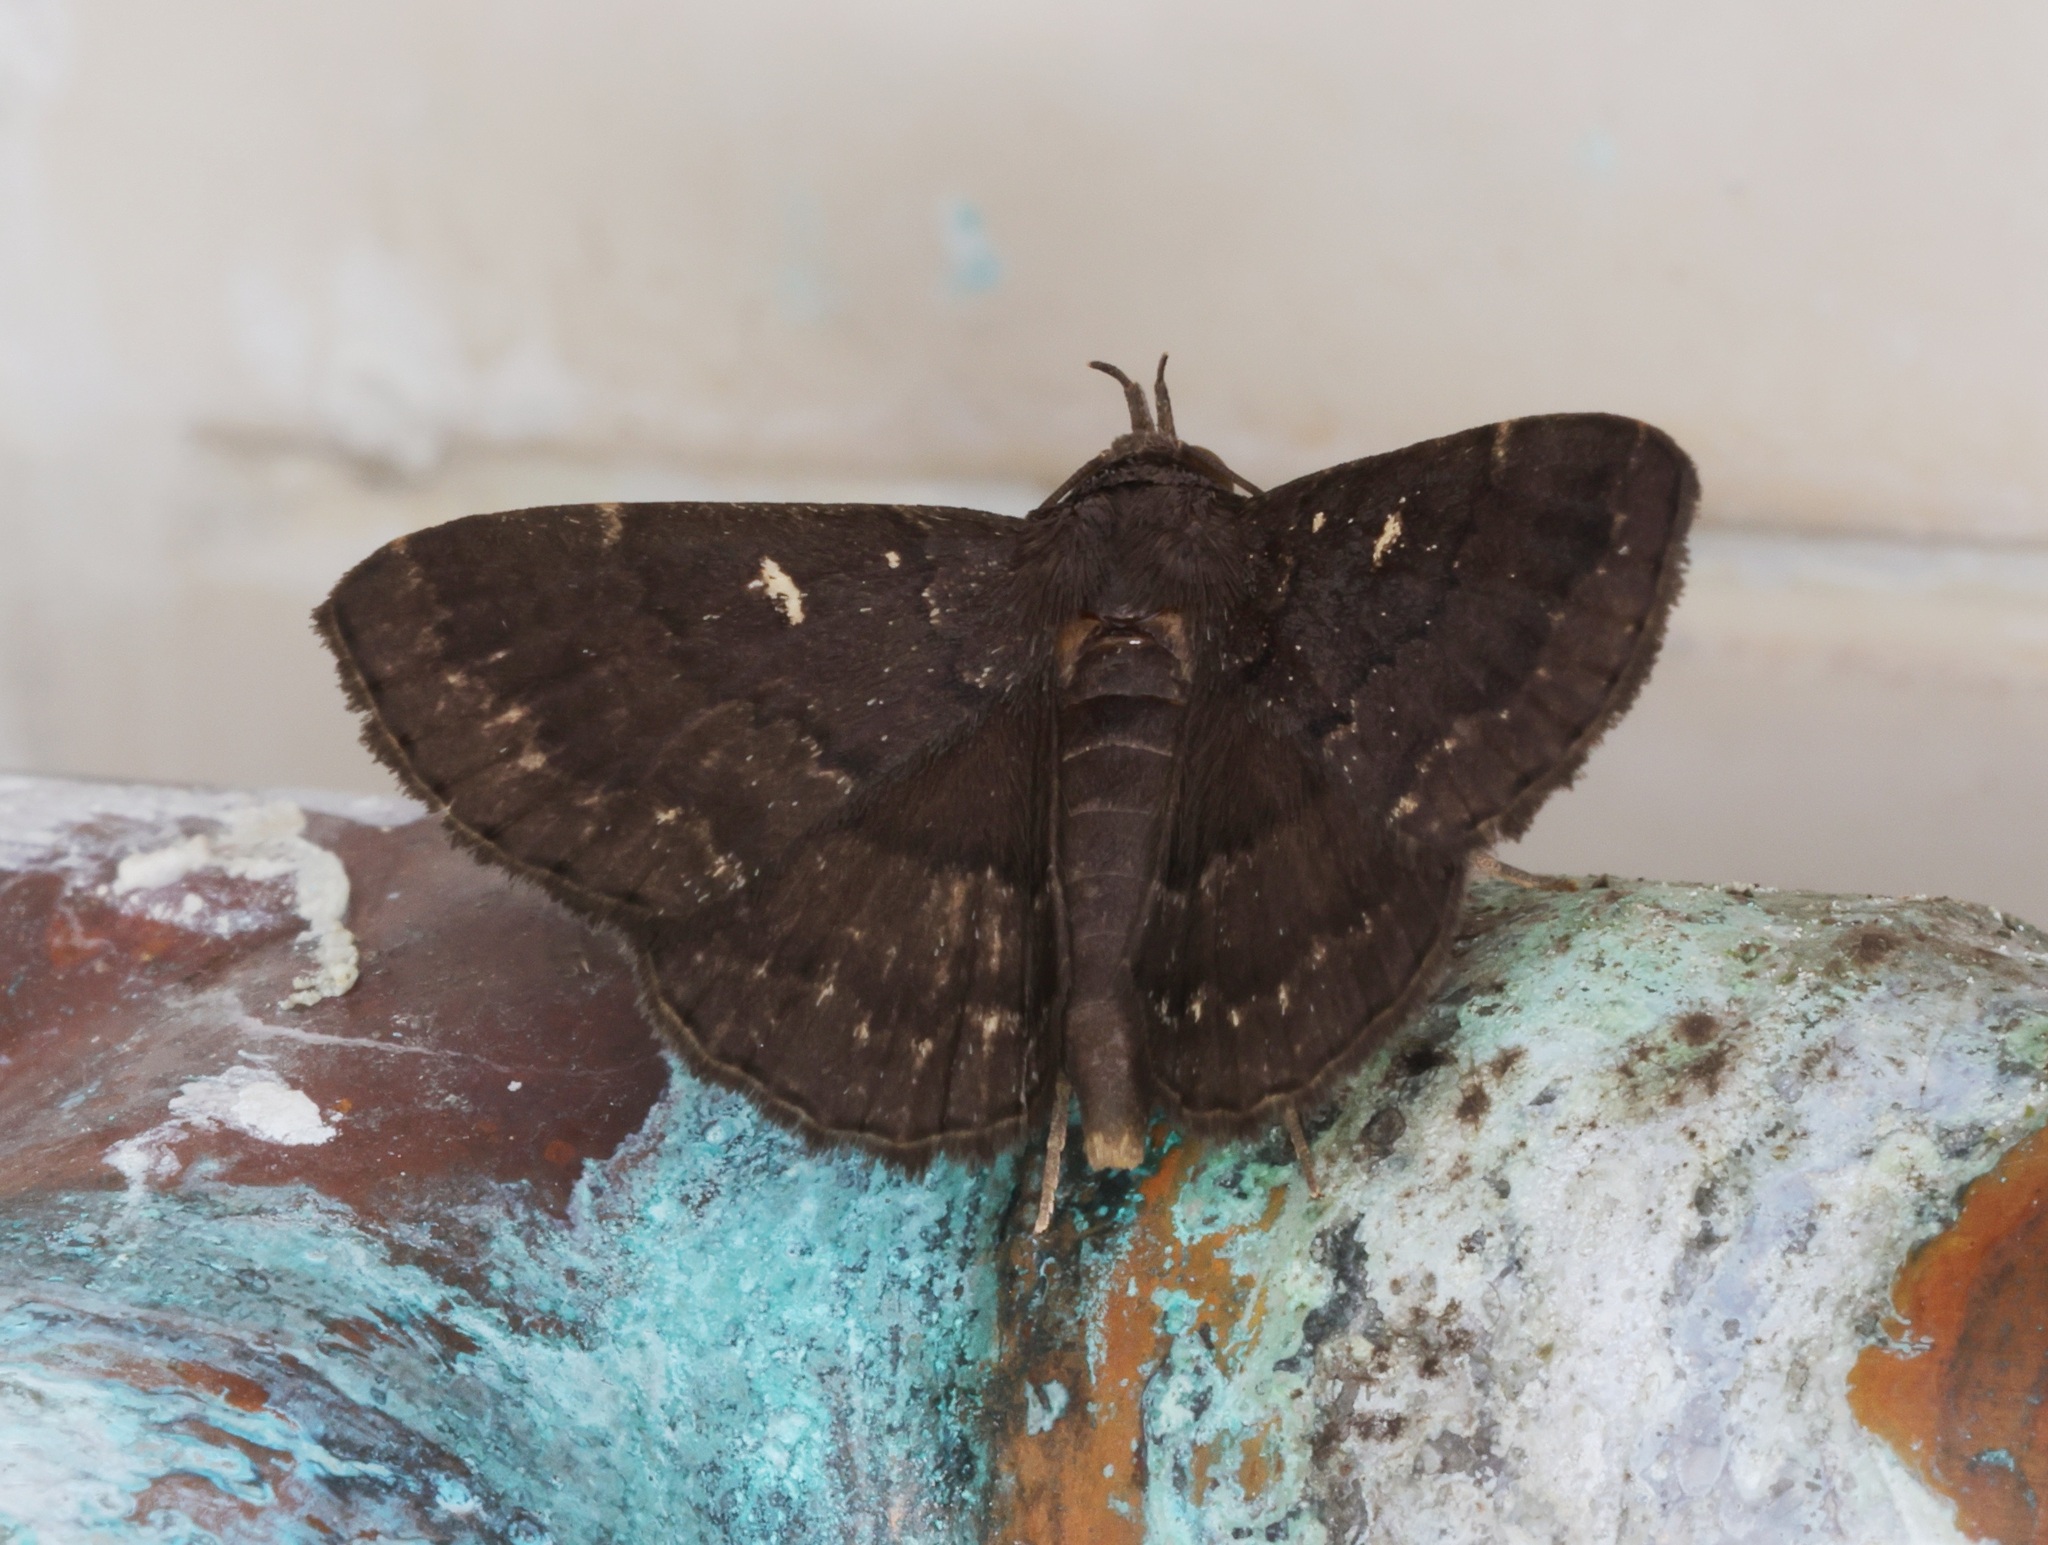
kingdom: Animalia
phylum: Arthropoda
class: Insecta
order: Lepidoptera
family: Erebidae
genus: Bocana
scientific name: Bocana manifestalis
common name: Moth
